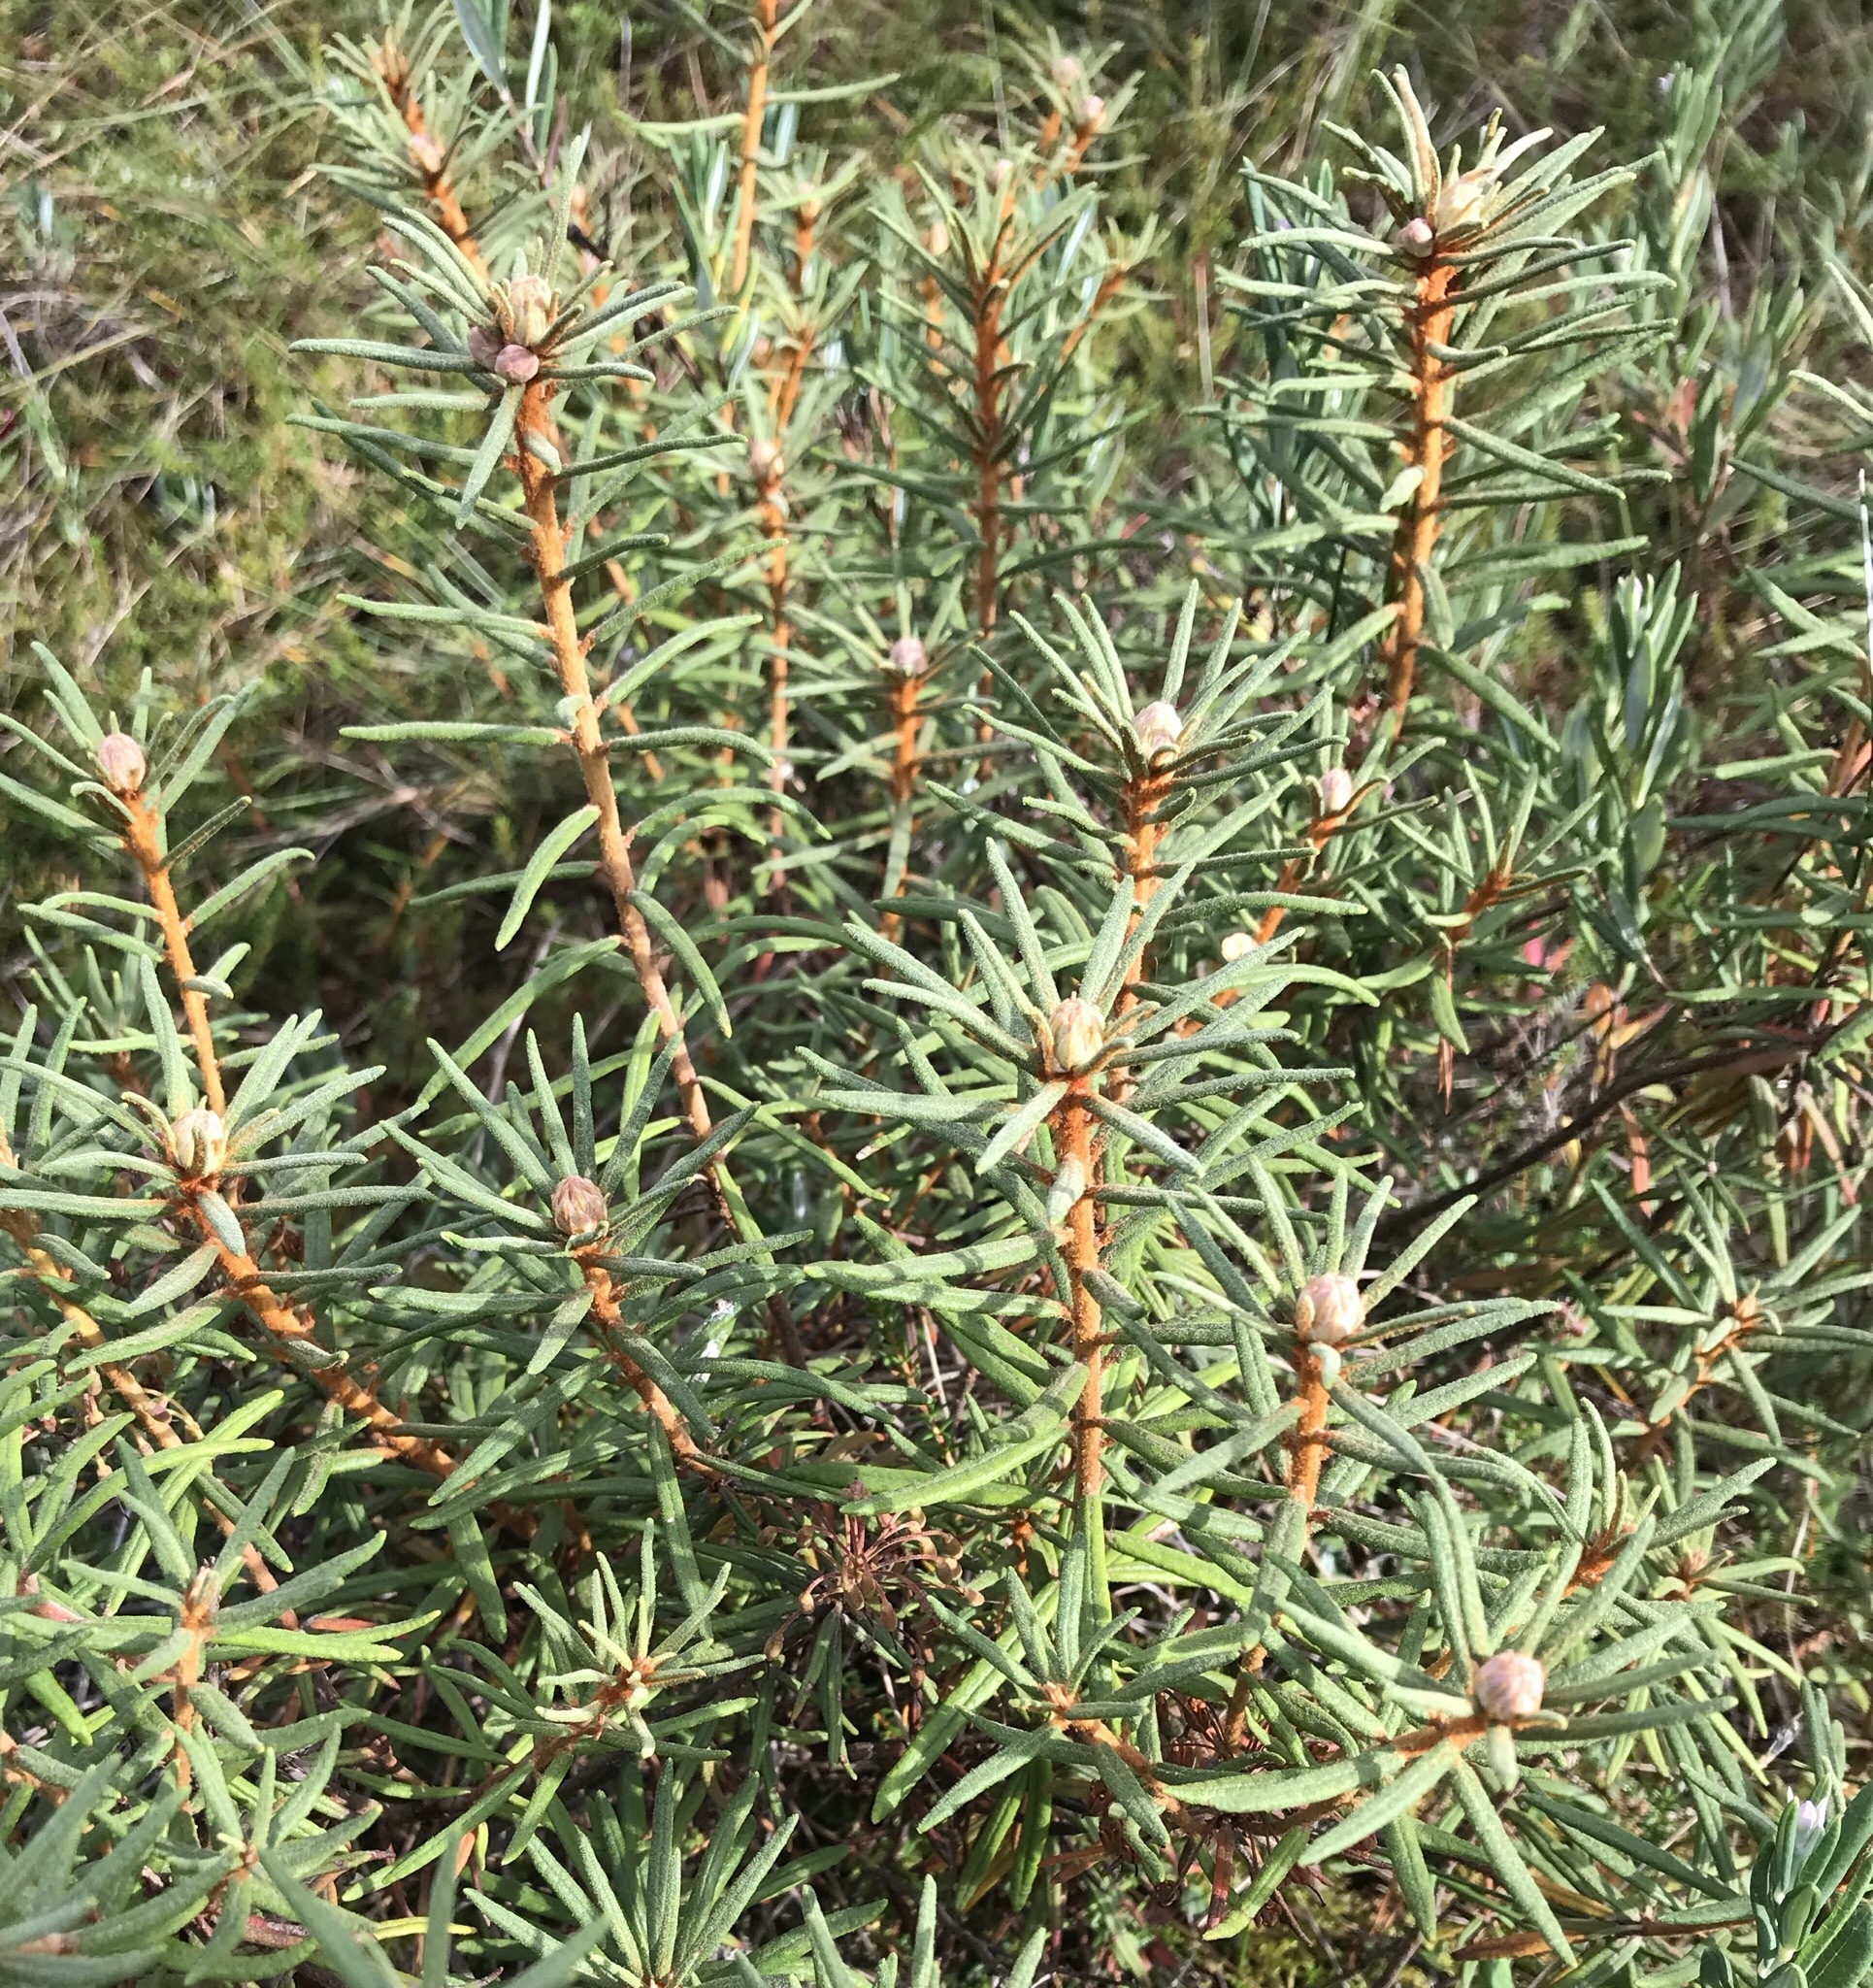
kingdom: Plantae
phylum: Tracheophyta
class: Magnoliopsida
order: Ericales
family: Ericaceae
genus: Rhododendron
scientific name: Rhododendron tomentosum
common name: Marsh labrador tea
